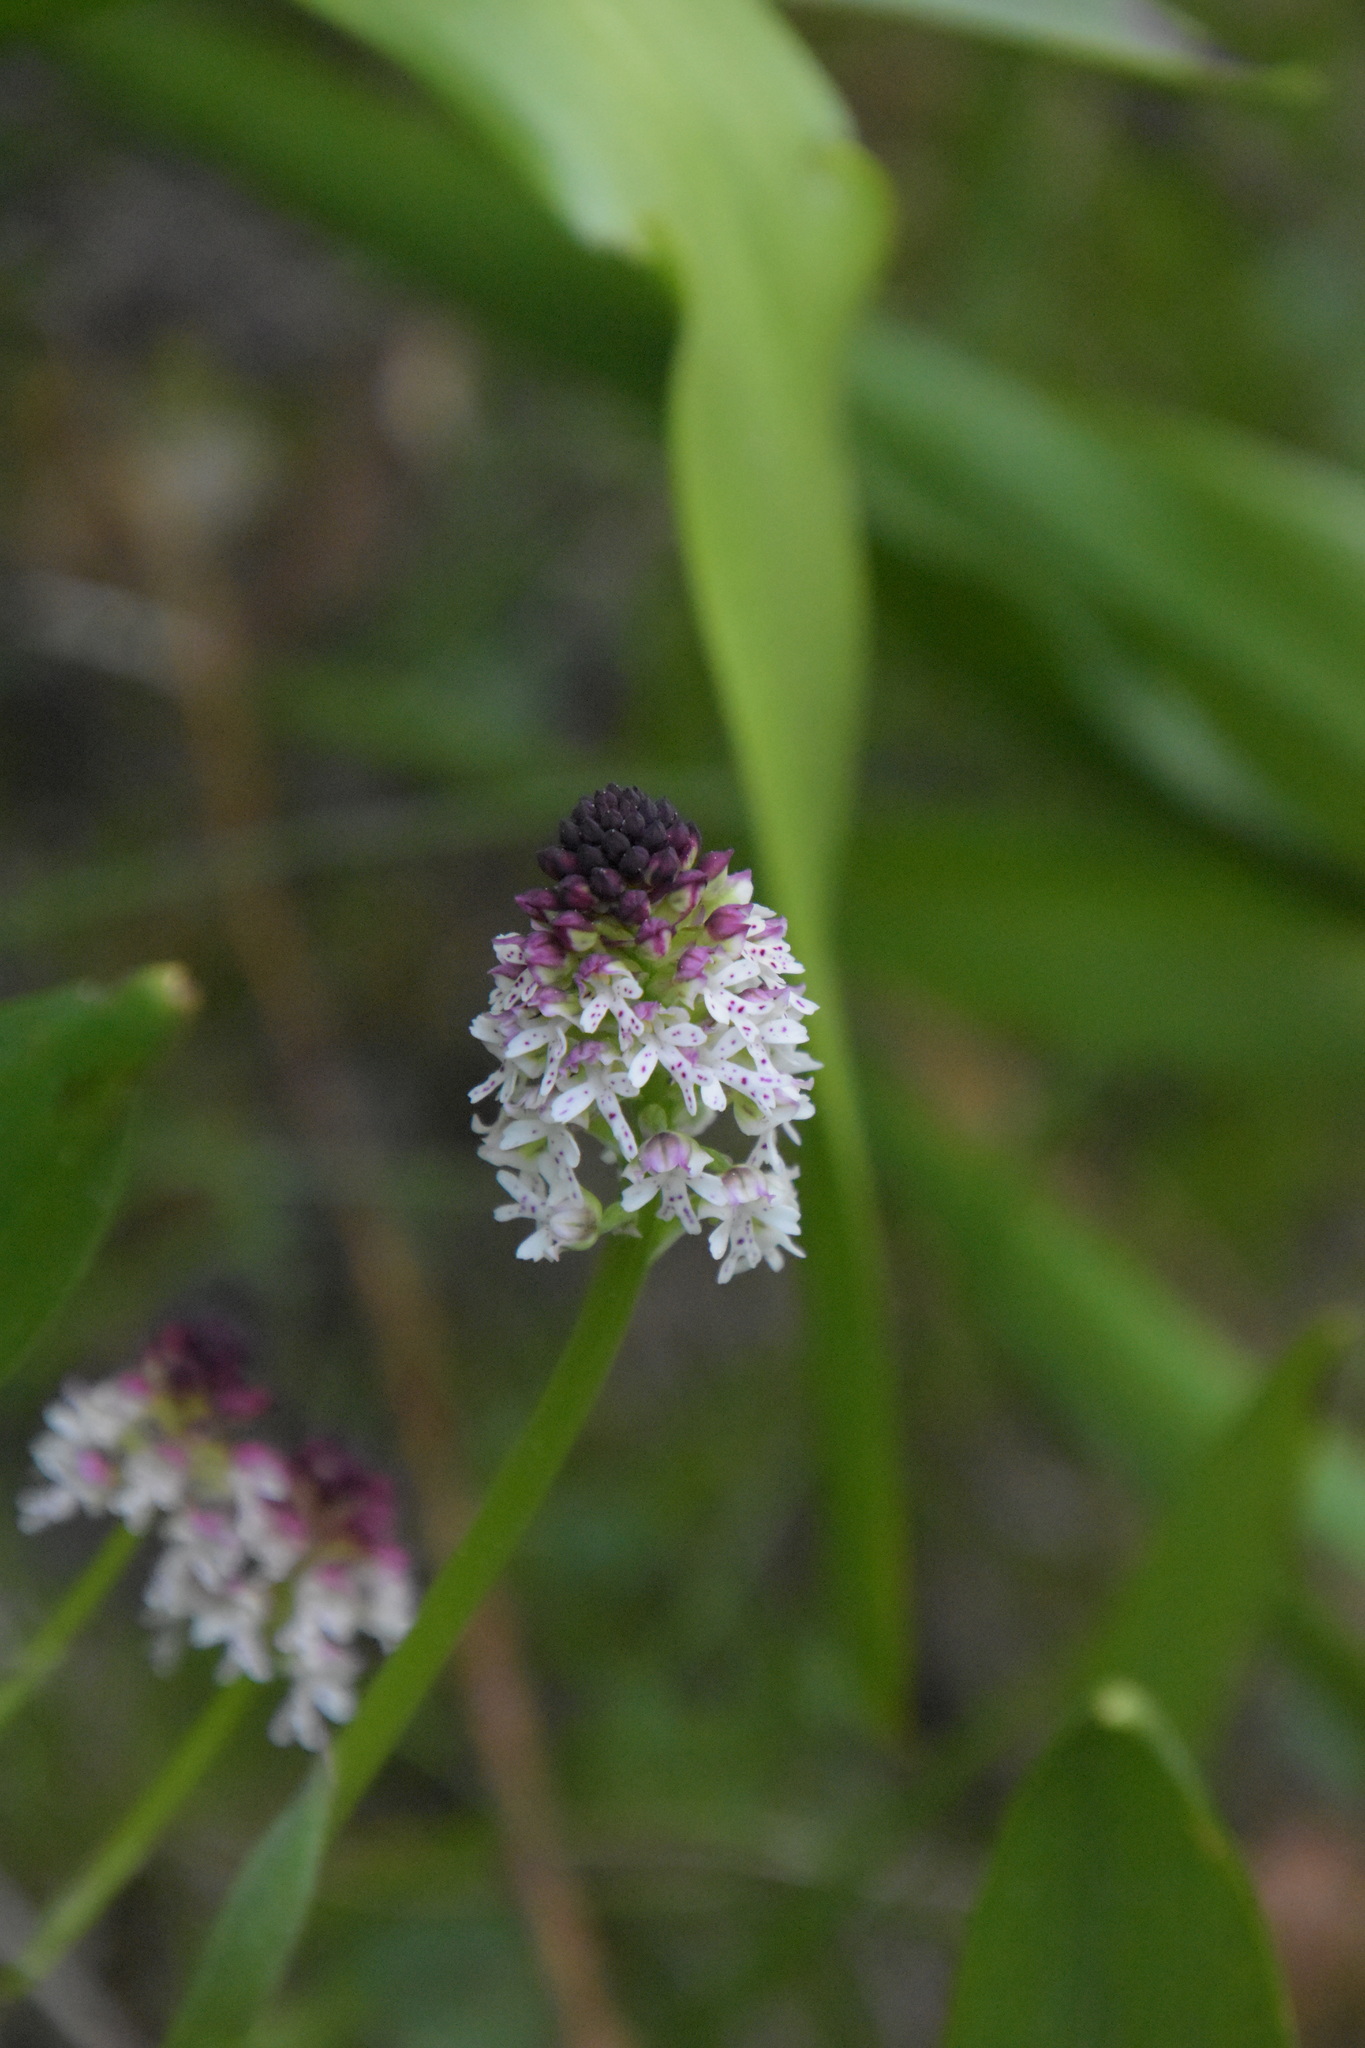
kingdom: Plantae
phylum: Tracheophyta
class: Liliopsida
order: Asparagales
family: Orchidaceae
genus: Neotinea
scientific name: Neotinea ustulata
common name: Burnt orchid
